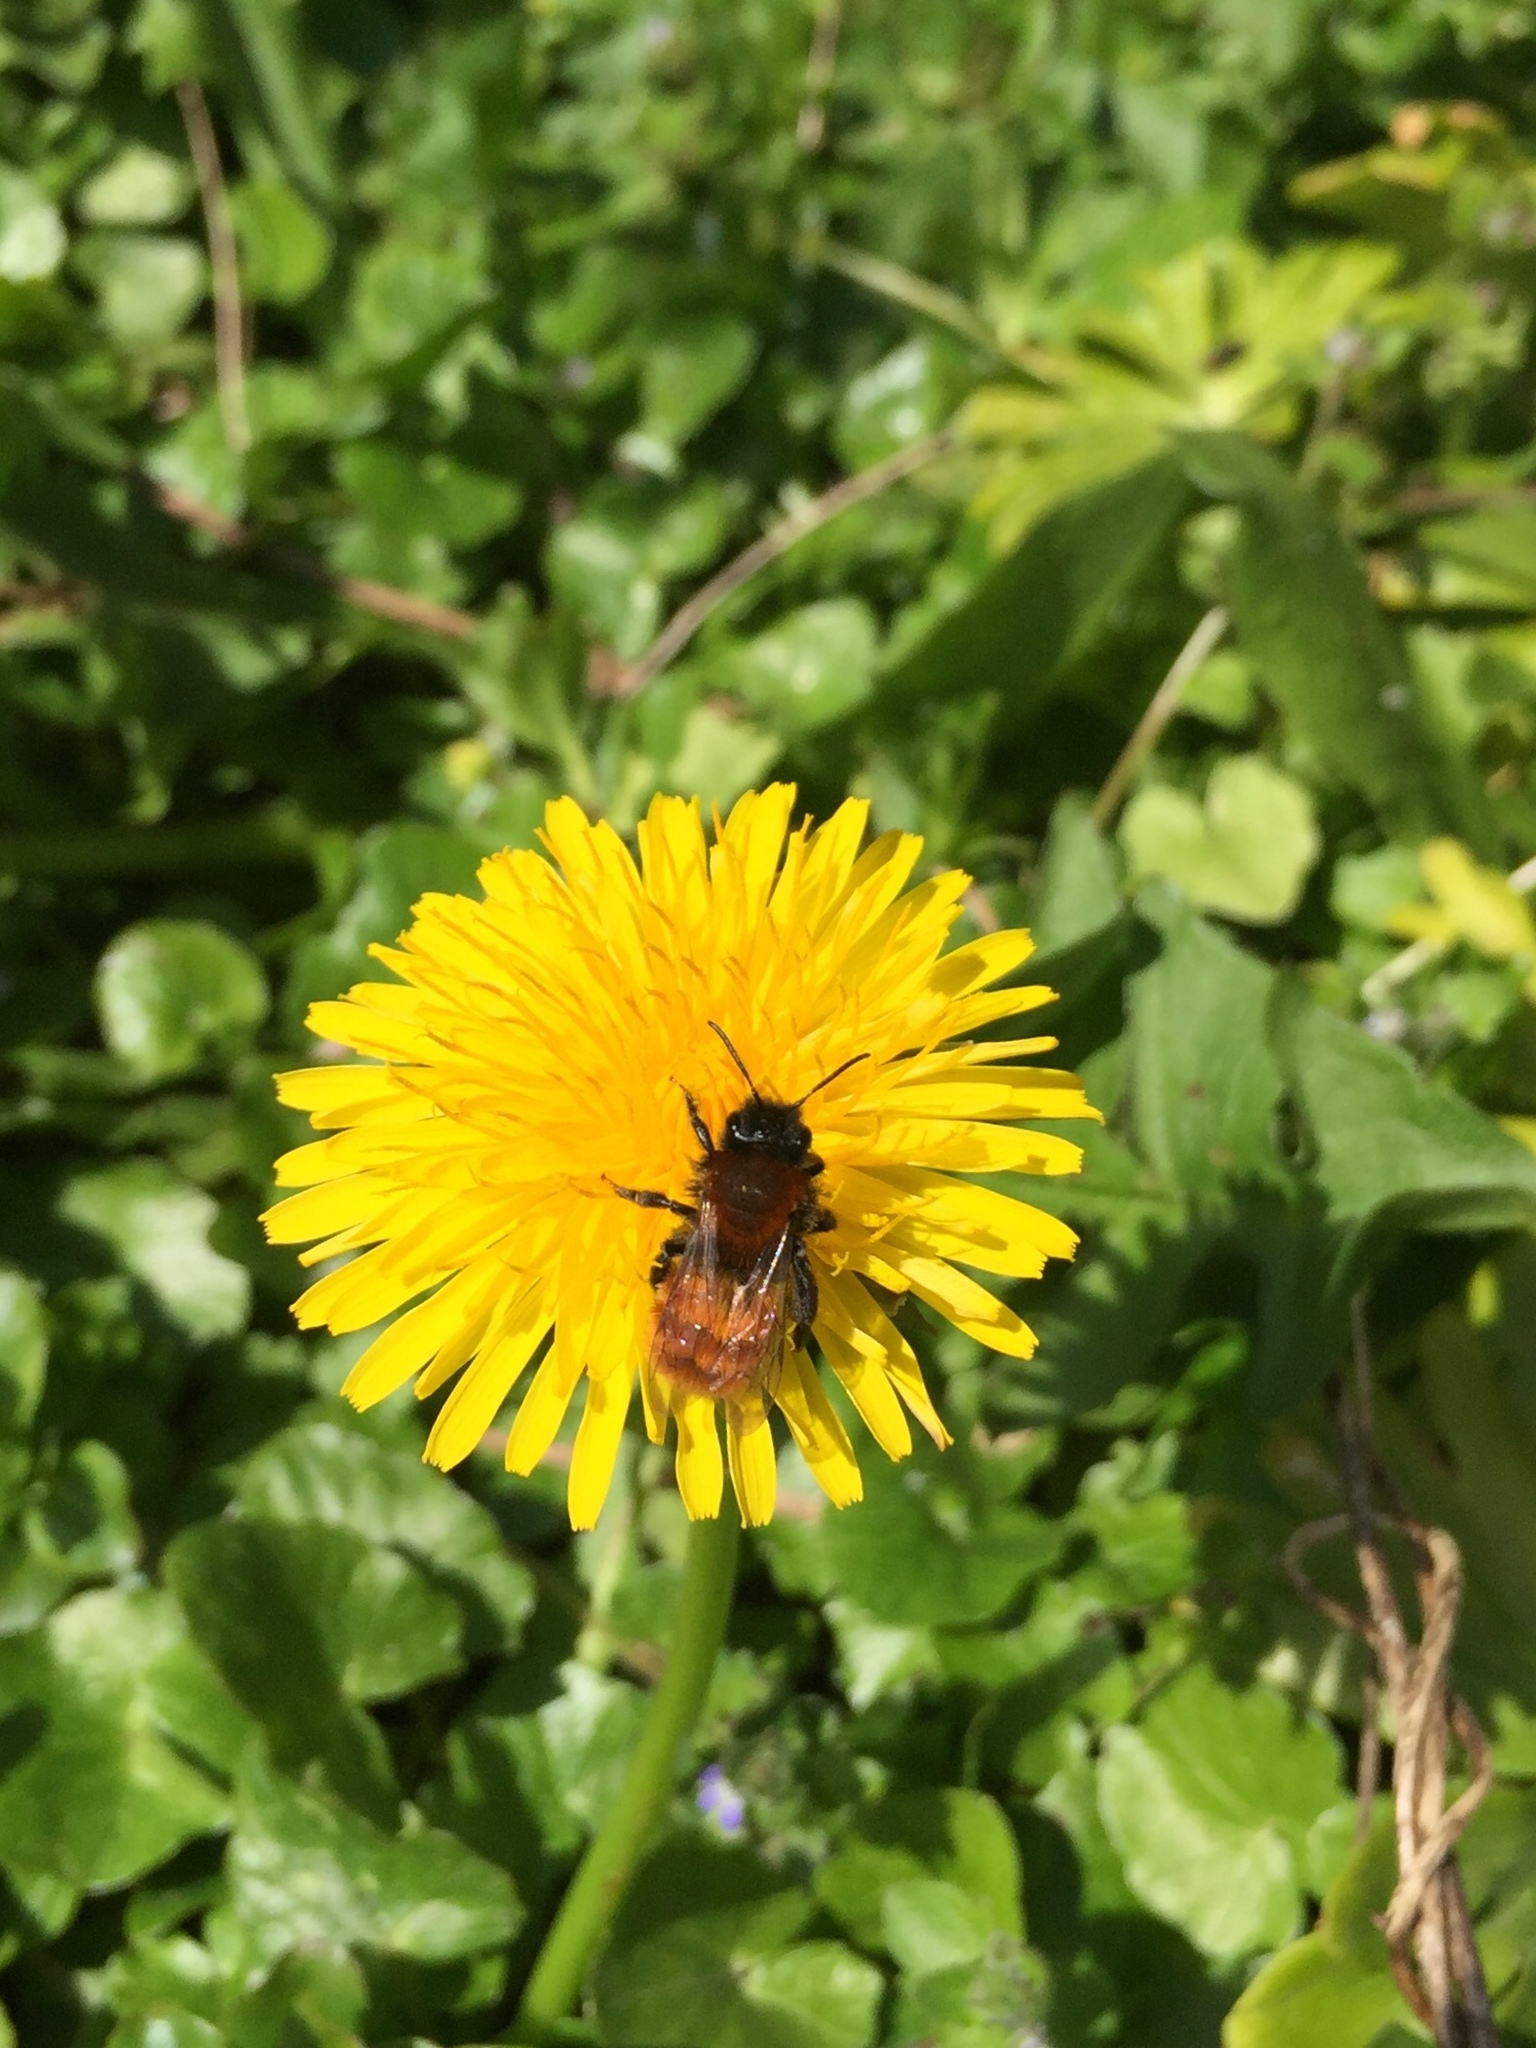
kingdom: Animalia
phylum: Arthropoda
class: Insecta
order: Hymenoptera
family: Andrenidae
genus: Andrena
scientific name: Andrena fulva
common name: Tawny mining bee
